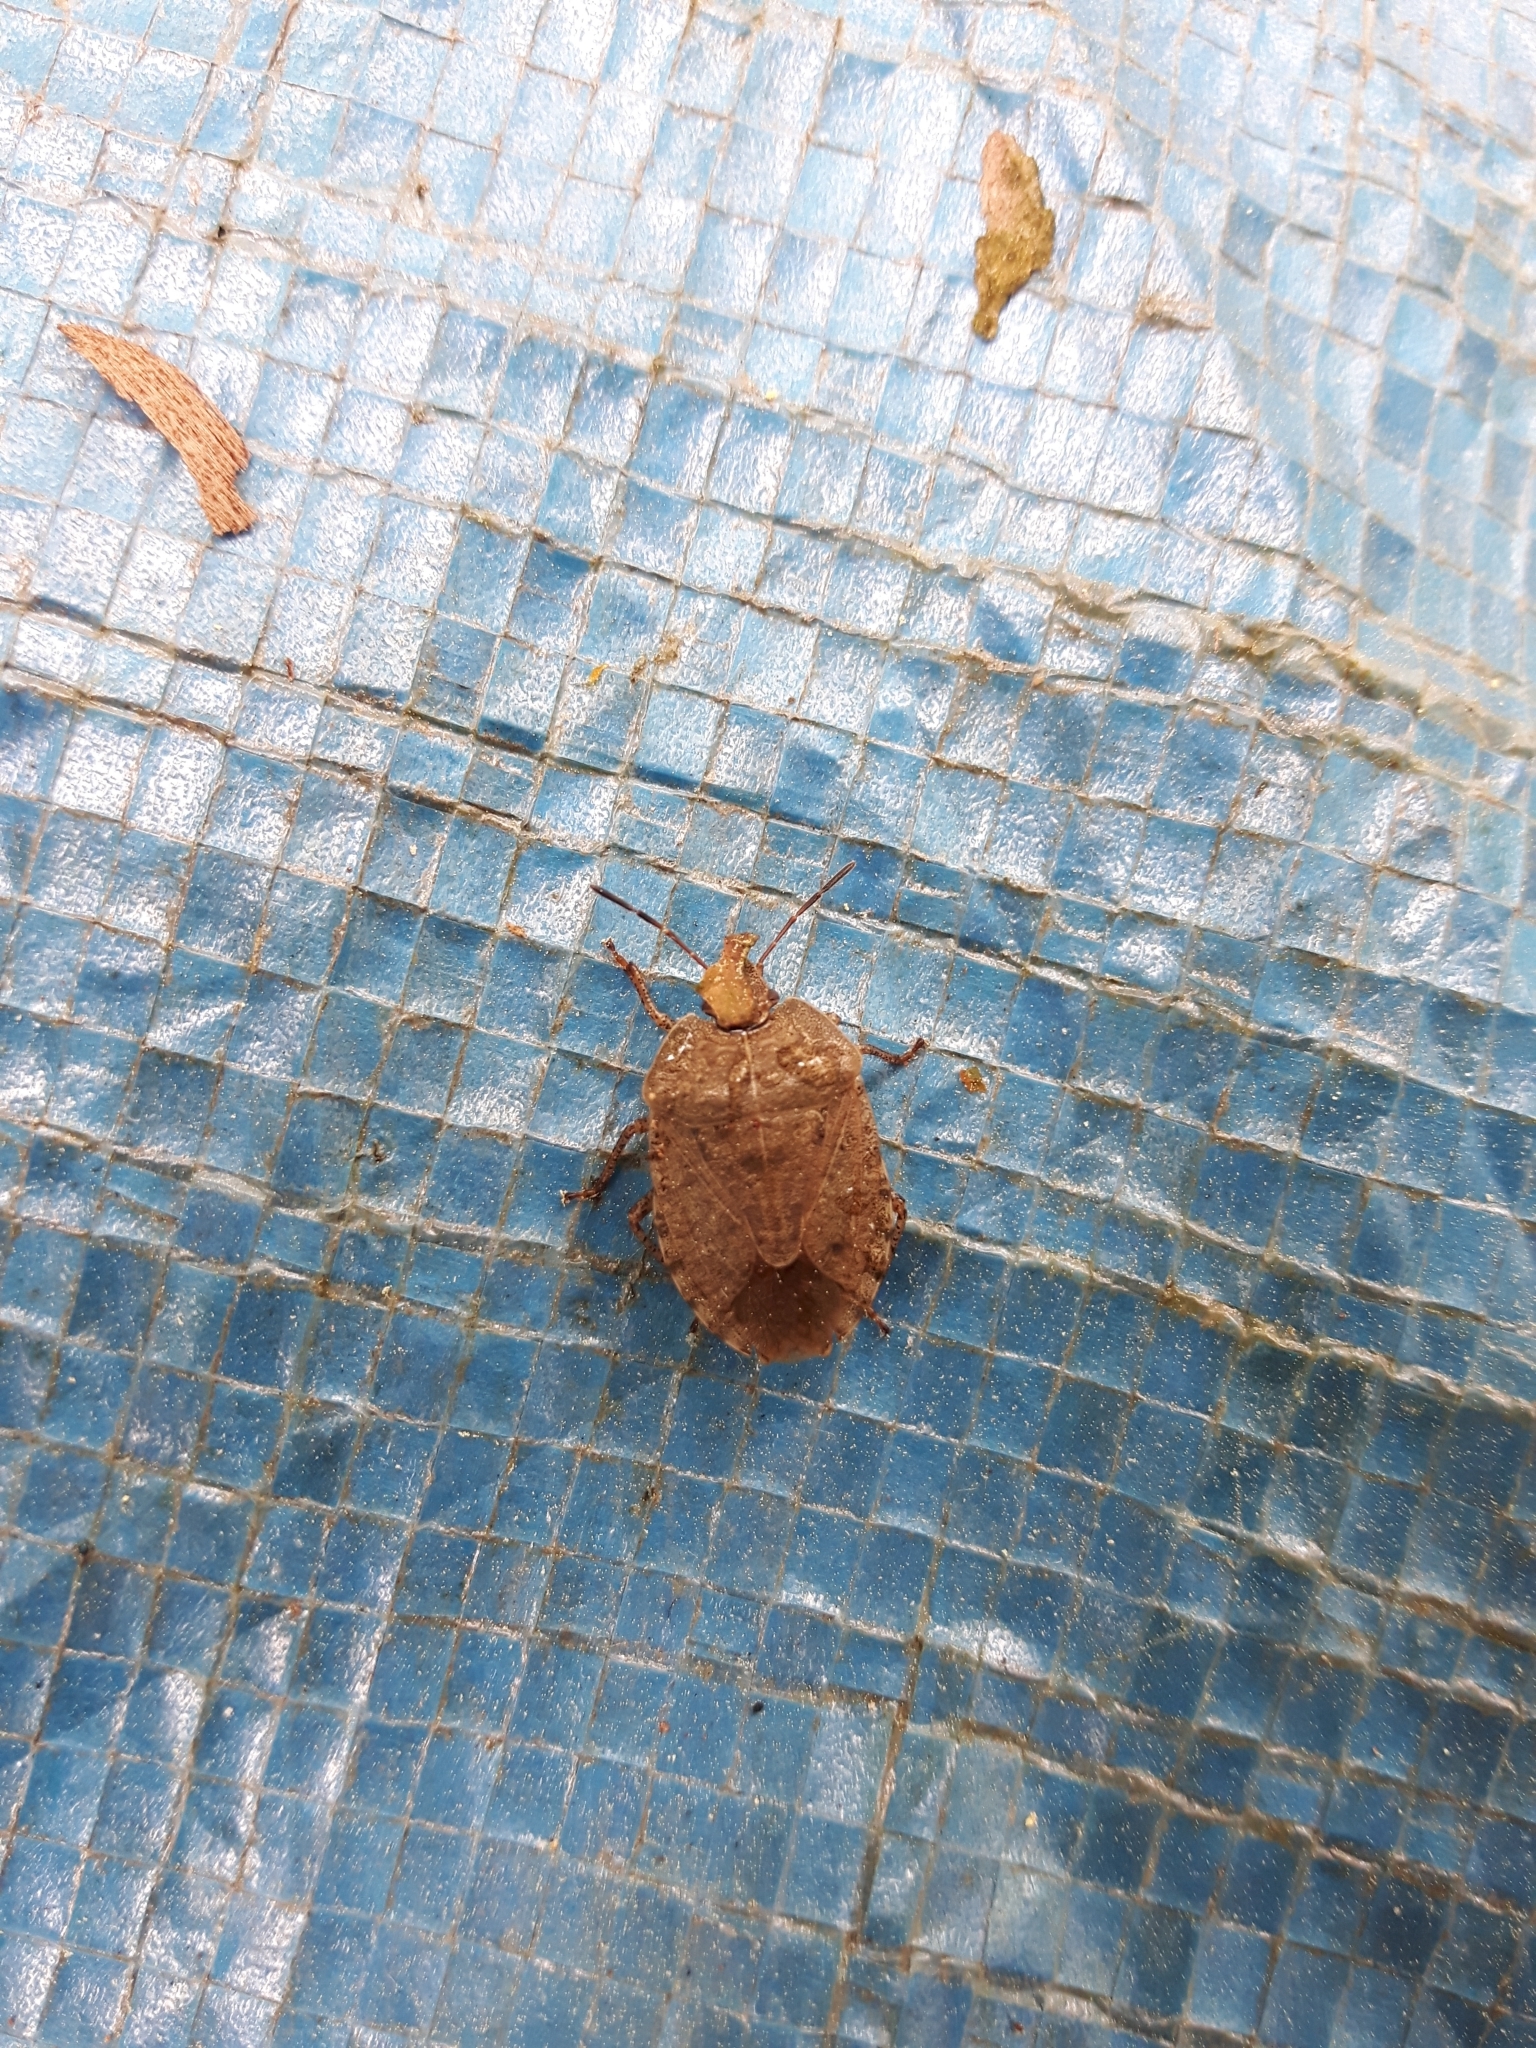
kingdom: Animalia
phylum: Arthropoda
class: Insecta
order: Hemiptera
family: Pentatomidae
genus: Menecles
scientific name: Menecles insertus
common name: Elf shoe stink bug
